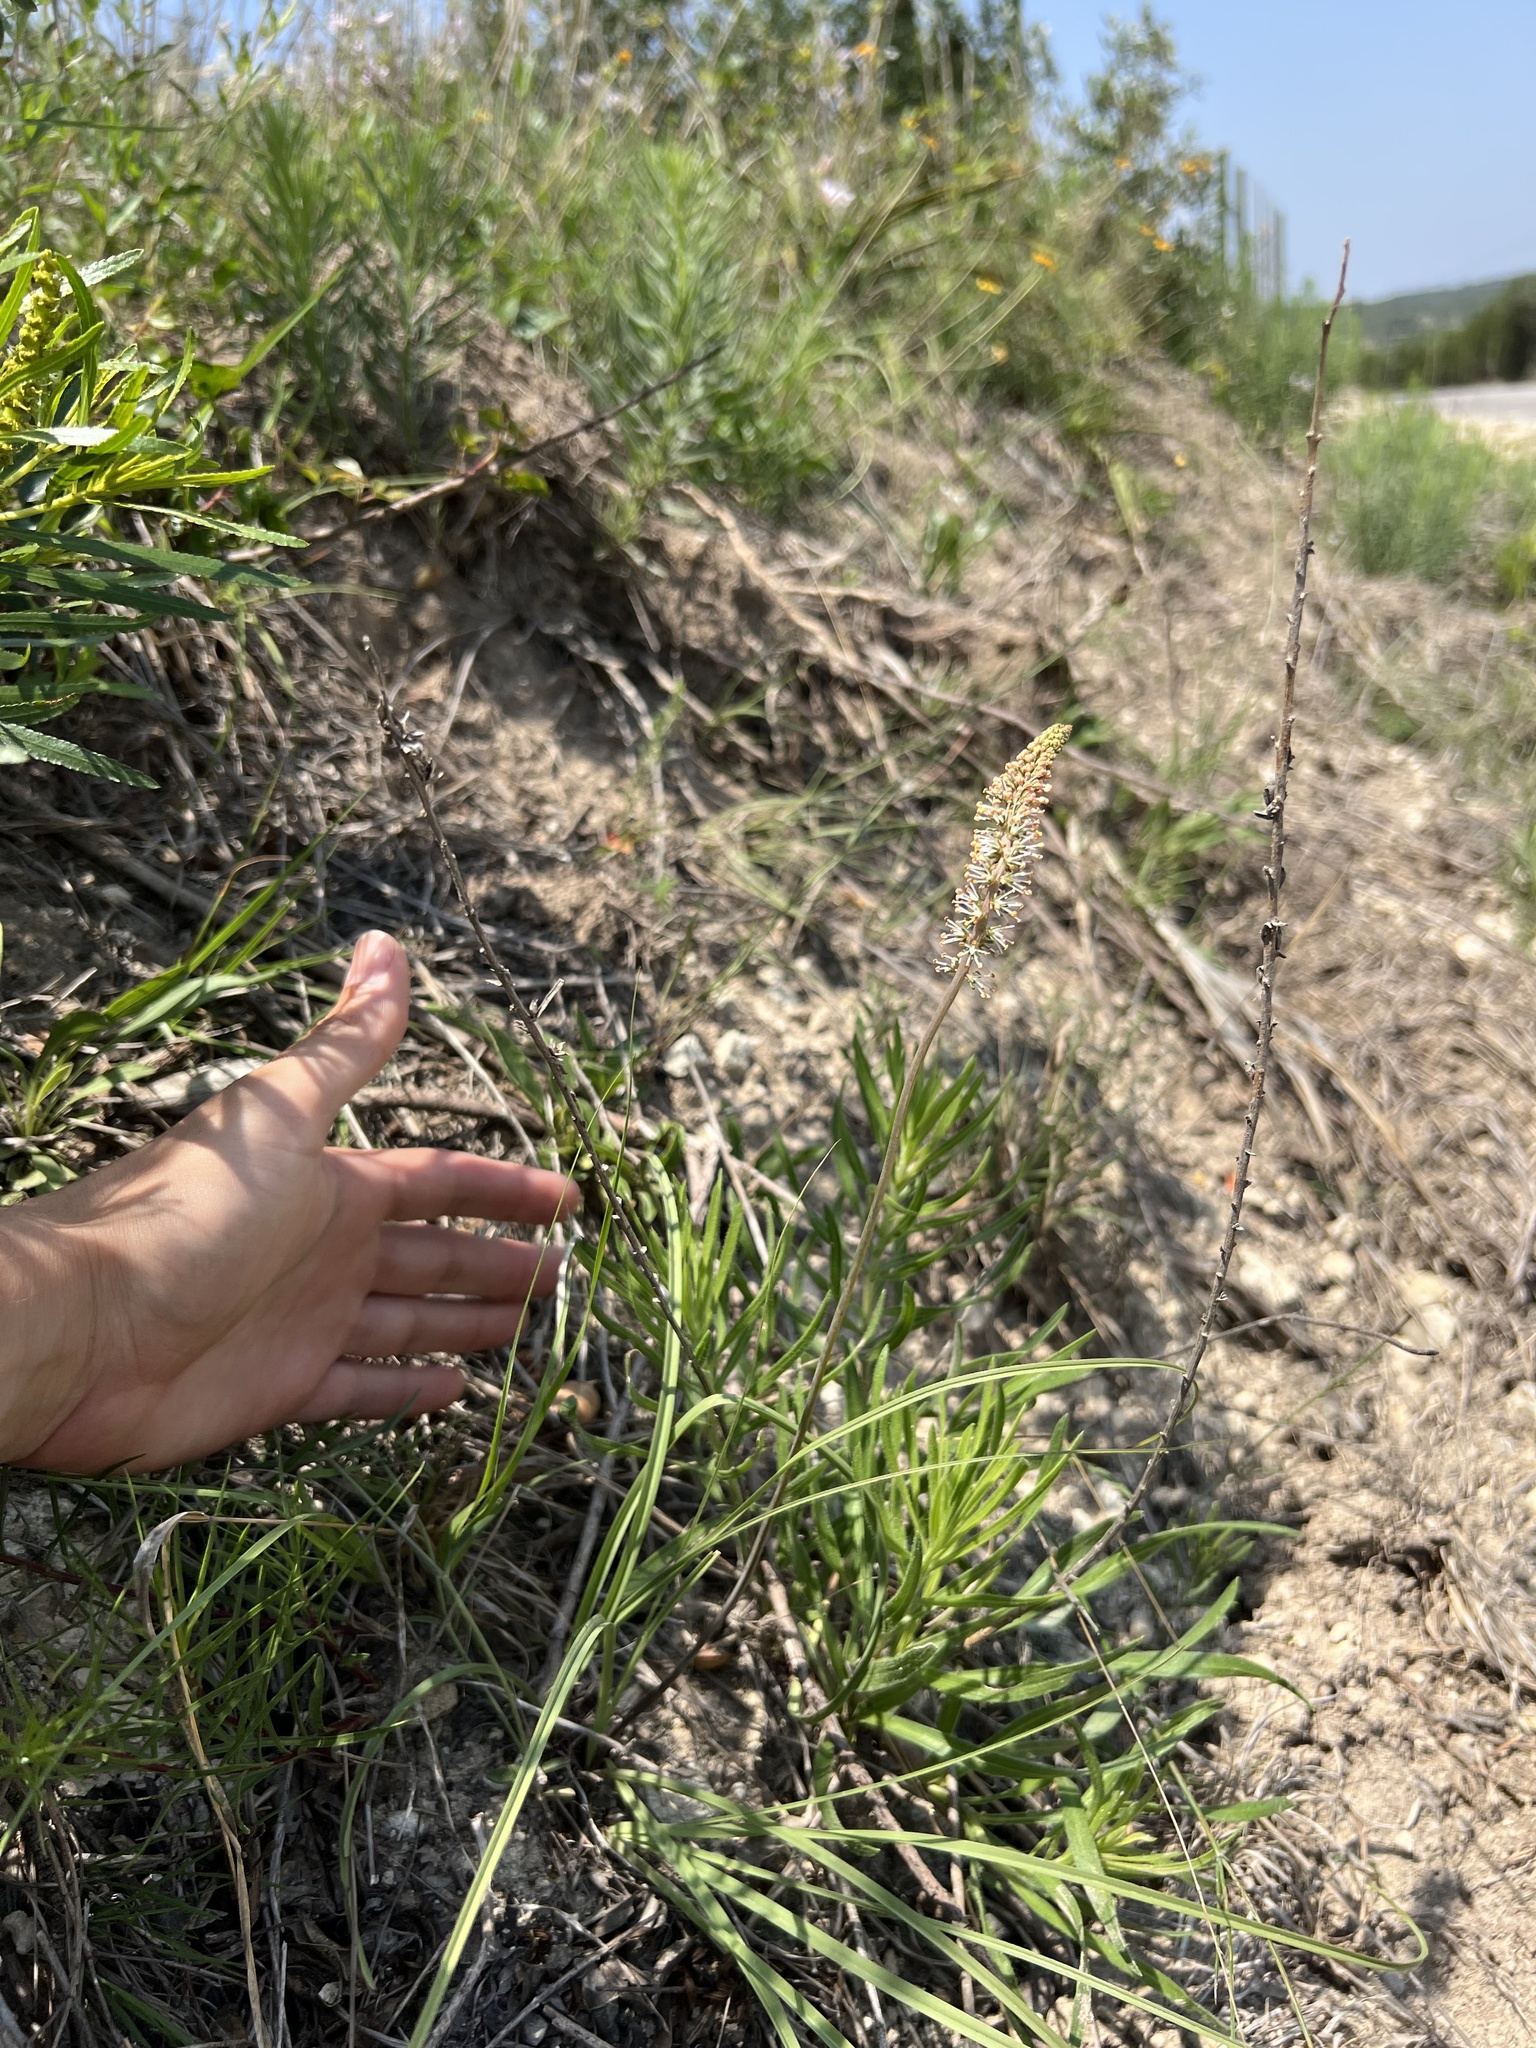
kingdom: Plantae
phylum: Tracheophyta
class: Liliopsida
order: Liliales
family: Melanthiaceae
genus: Schoenocaulon
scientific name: Schoenocaulon texanum
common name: Texas feather-shank
